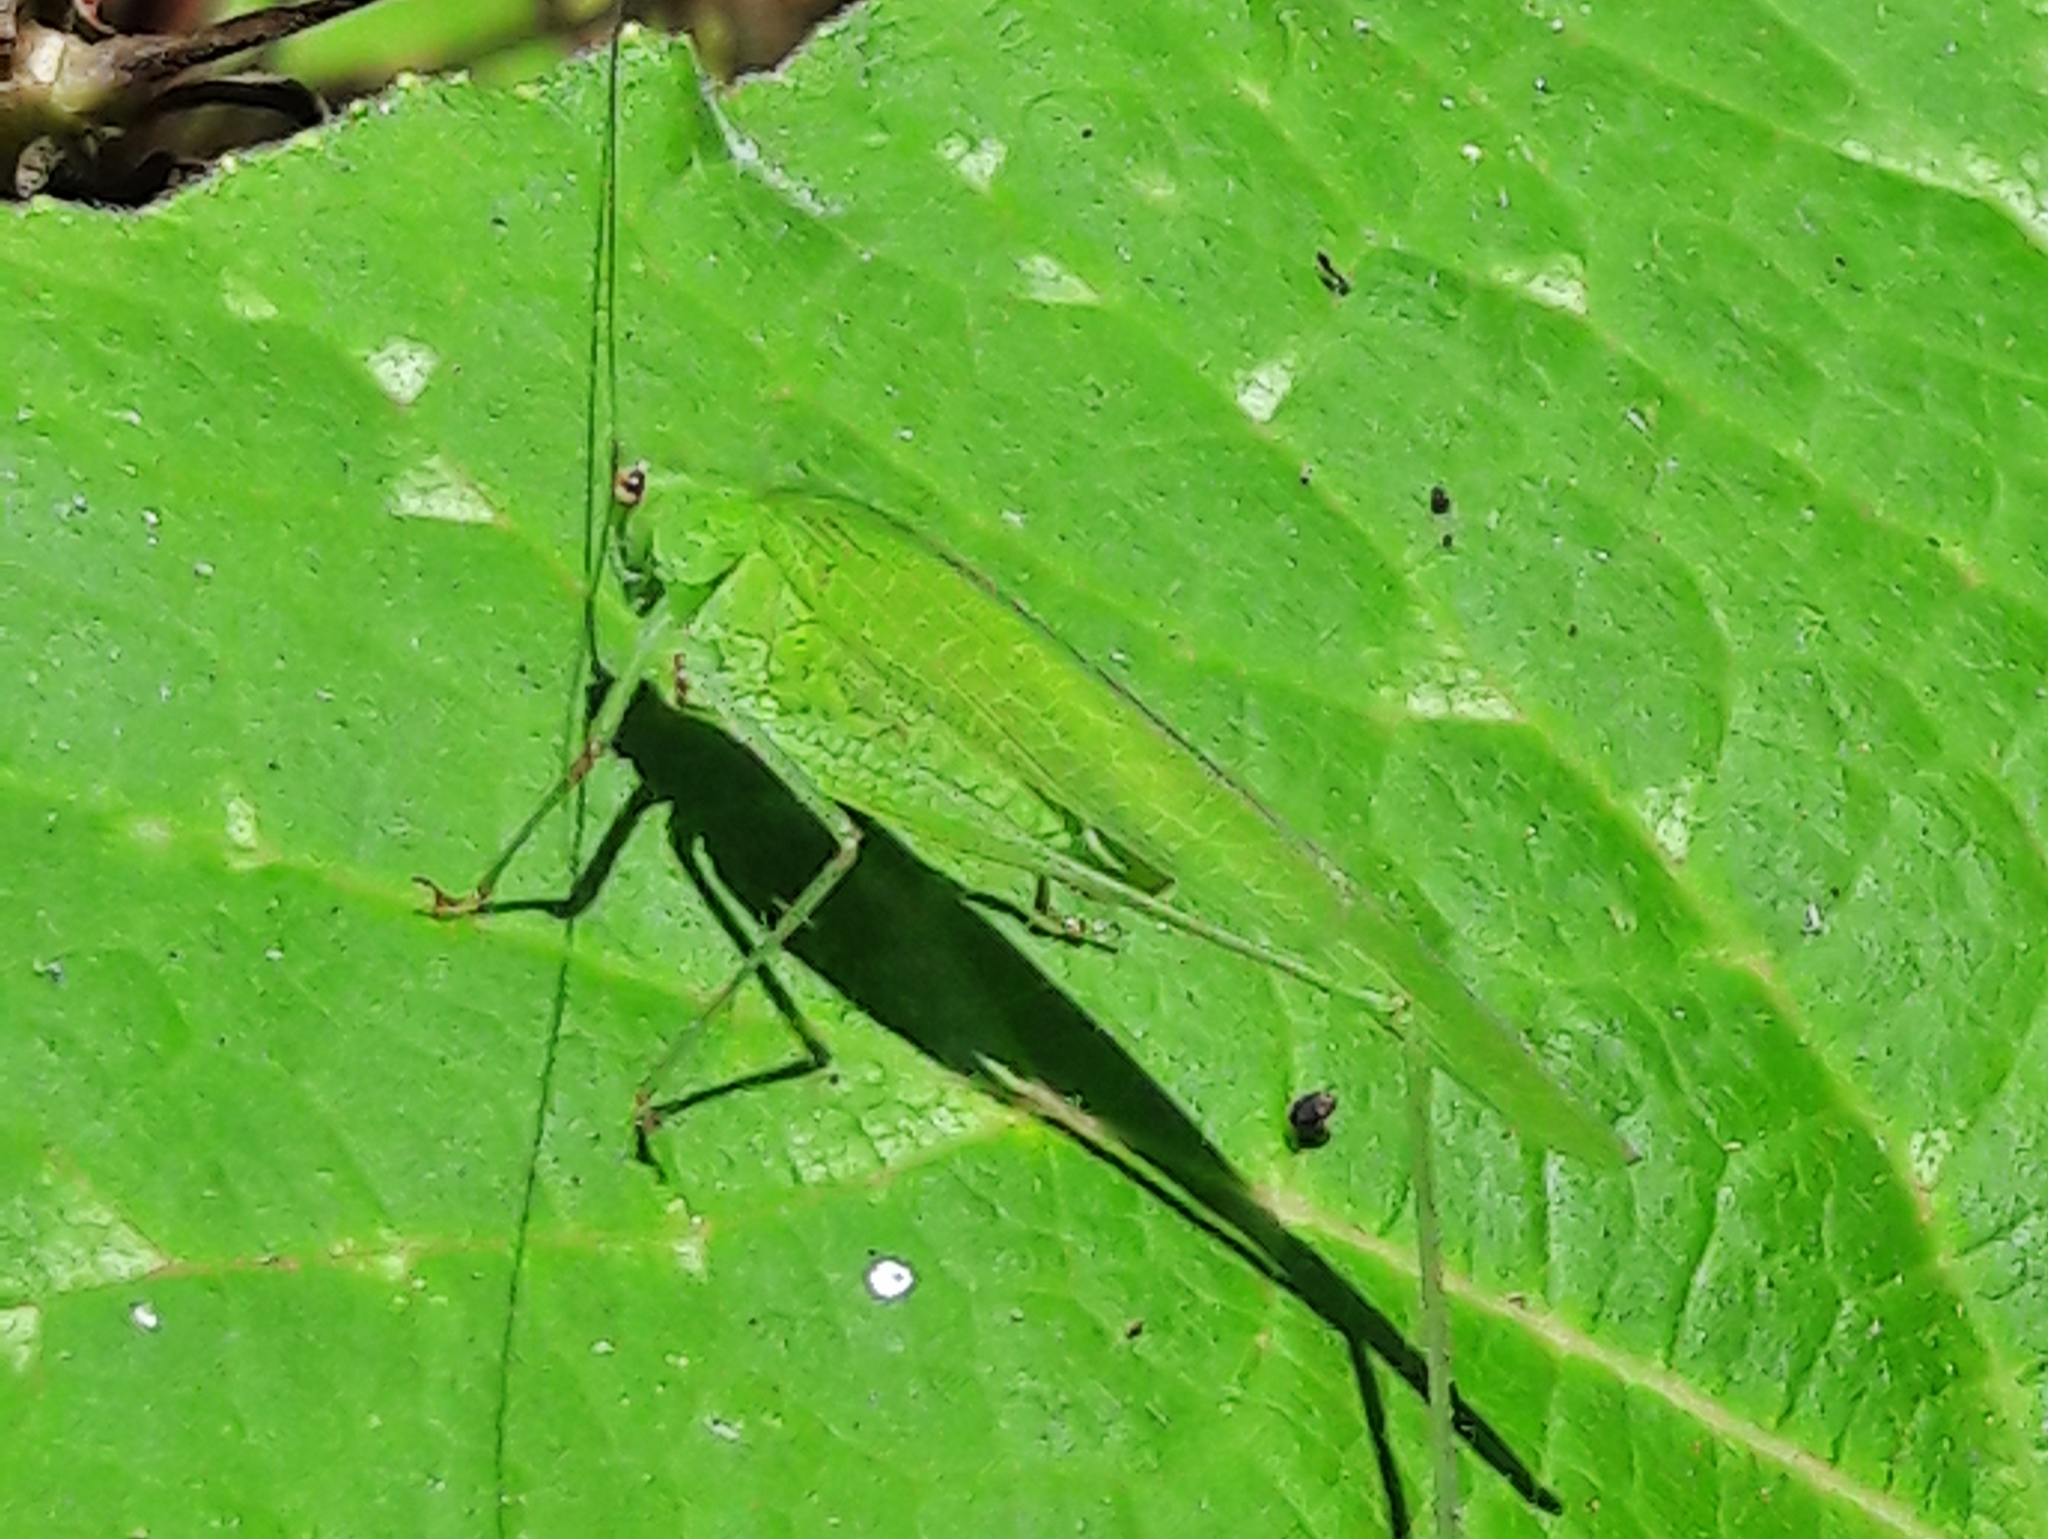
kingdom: Animalia
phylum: Arthropoda
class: Insecta
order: Orthoptera
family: Tettigoniidae
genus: Phaneroptera
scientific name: Phaneroptera quinquesignata
